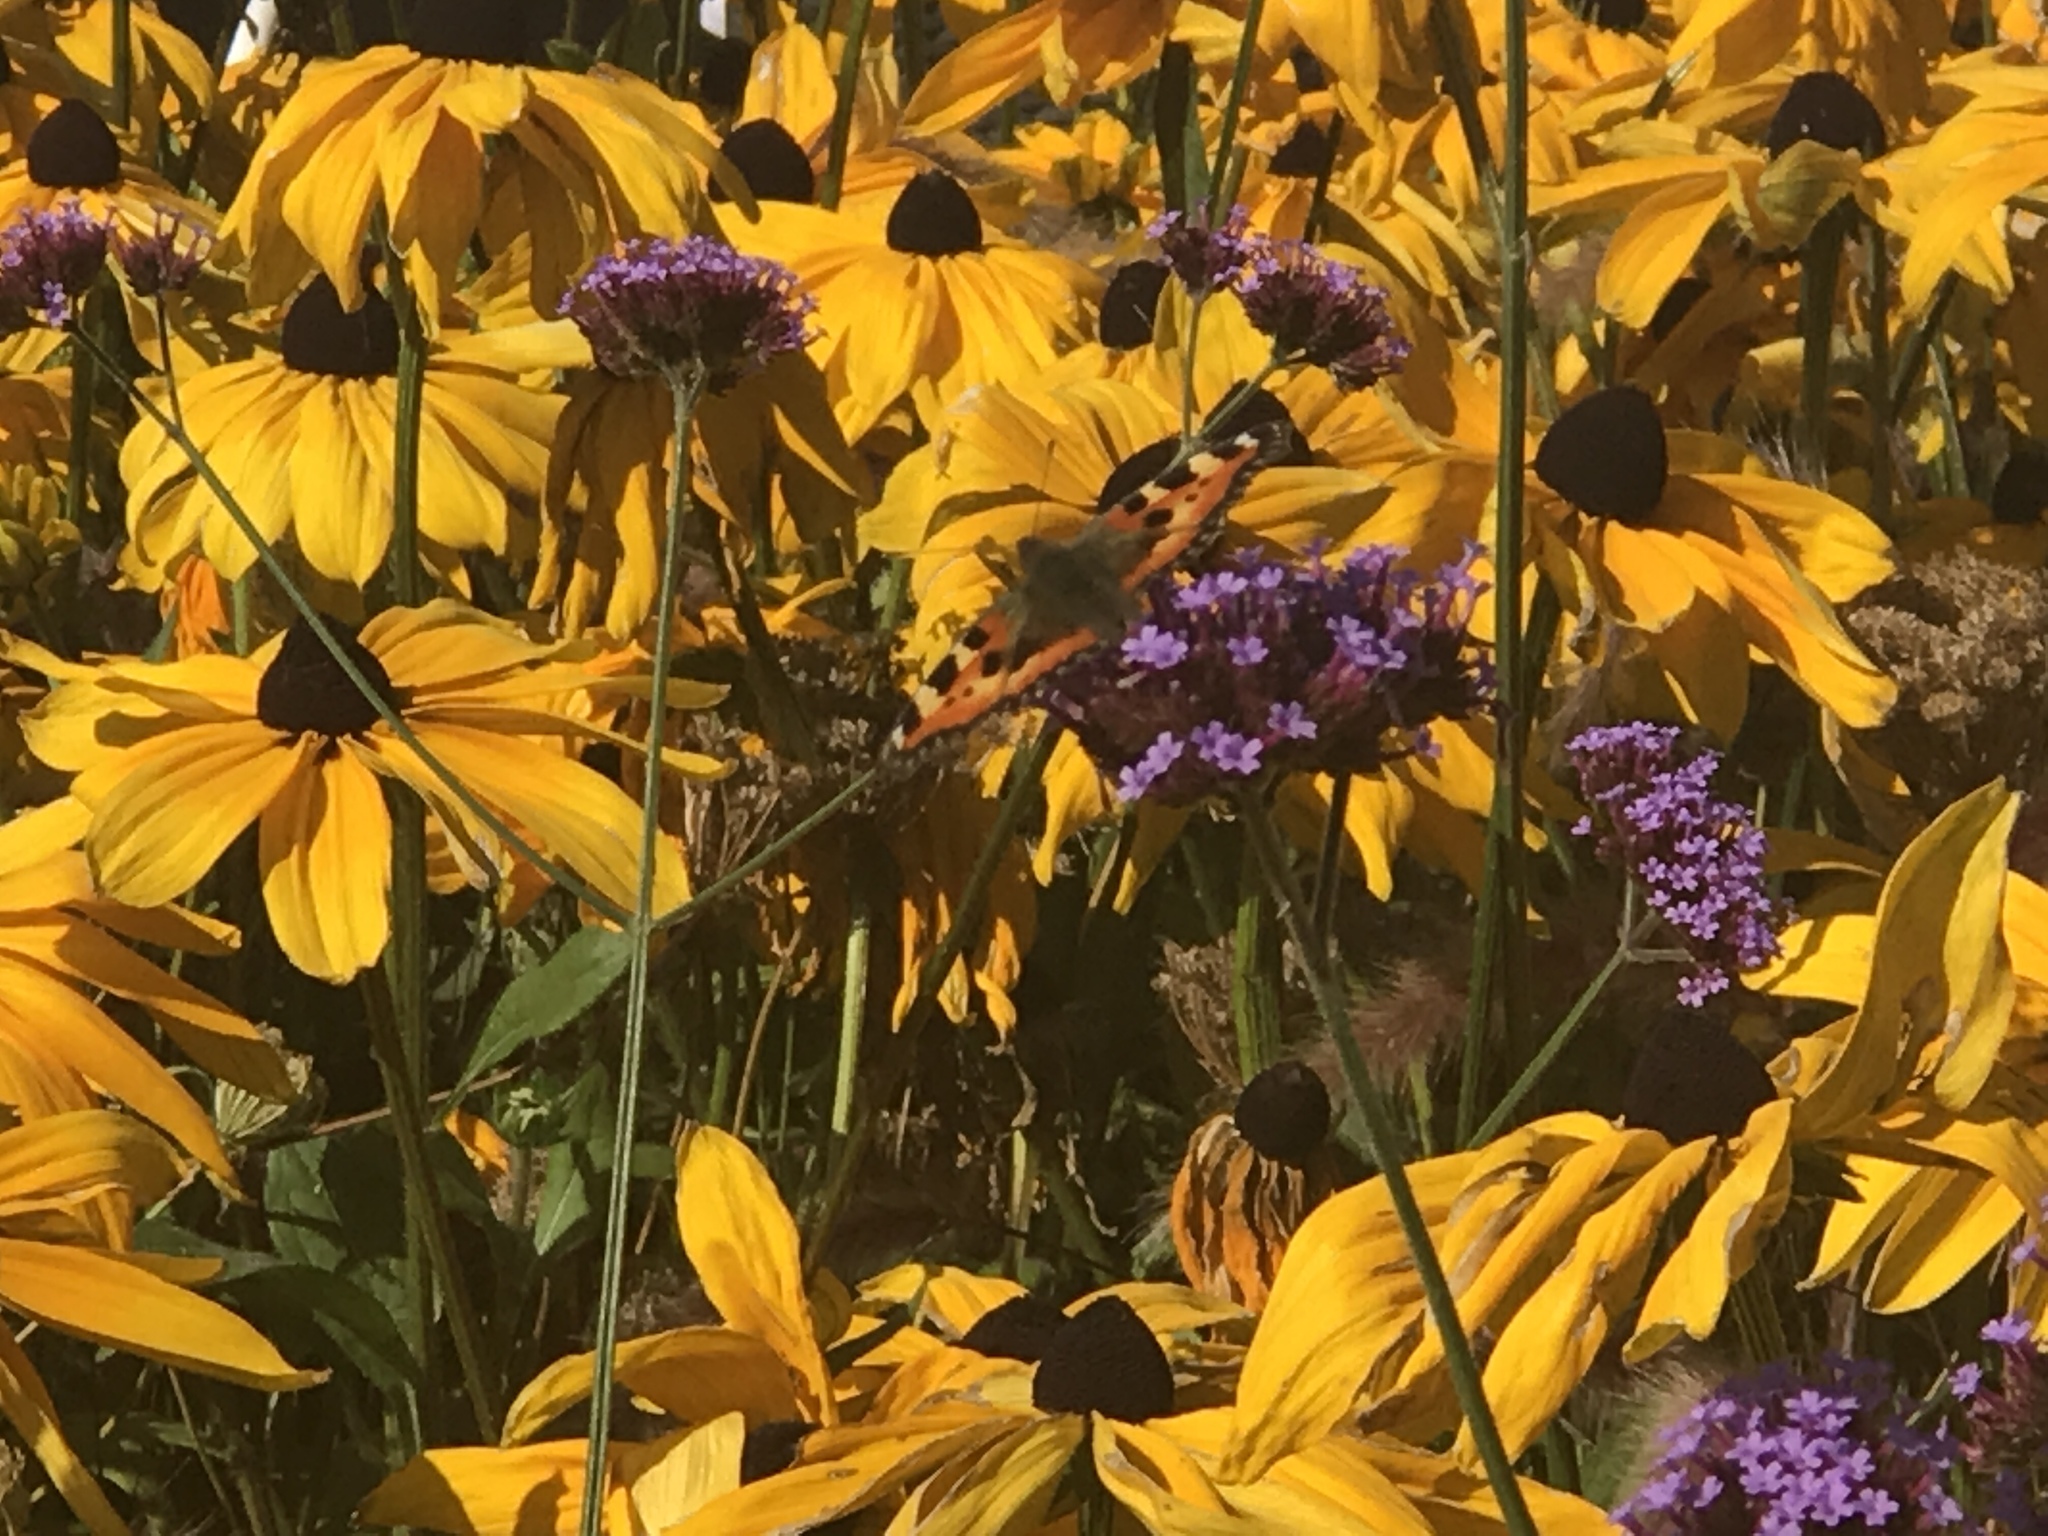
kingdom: Animalia
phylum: Arthropoda
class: Insecta
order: Lepidoptera
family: Nymphalidae
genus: Aglais
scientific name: Aglais urticae
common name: Small tortoiseshell
